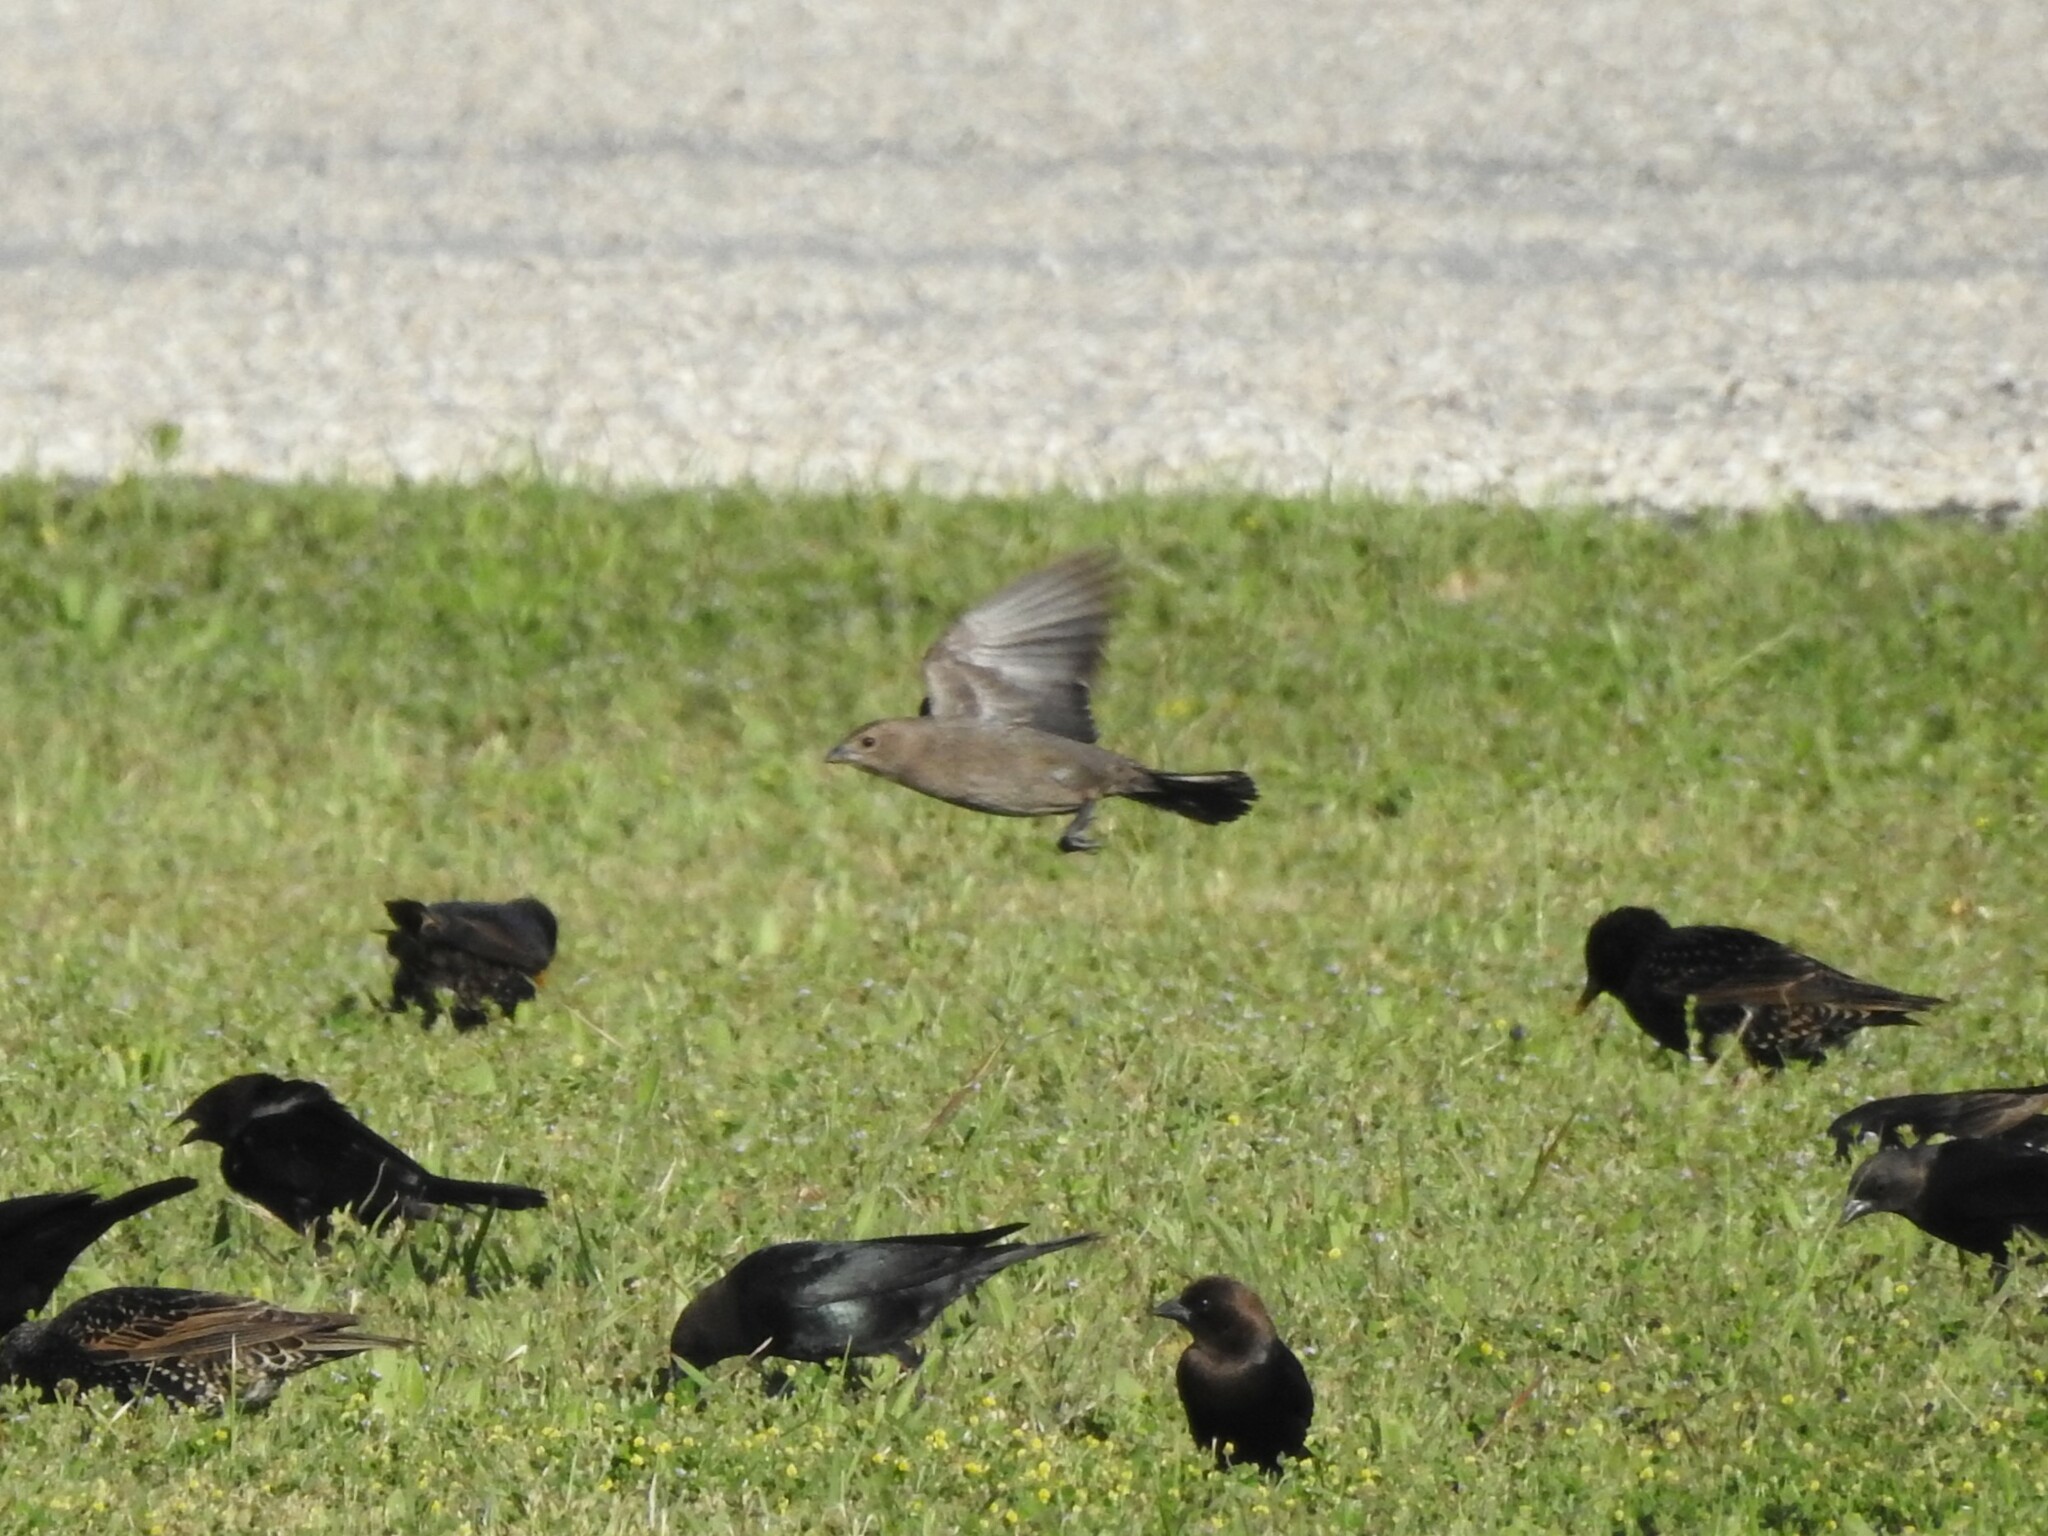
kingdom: Animalia
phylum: Chordata
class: Aves
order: Passeriformes
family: Icteridae
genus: Molothrus
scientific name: Molothrus ater
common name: Brown-headed cowbird
